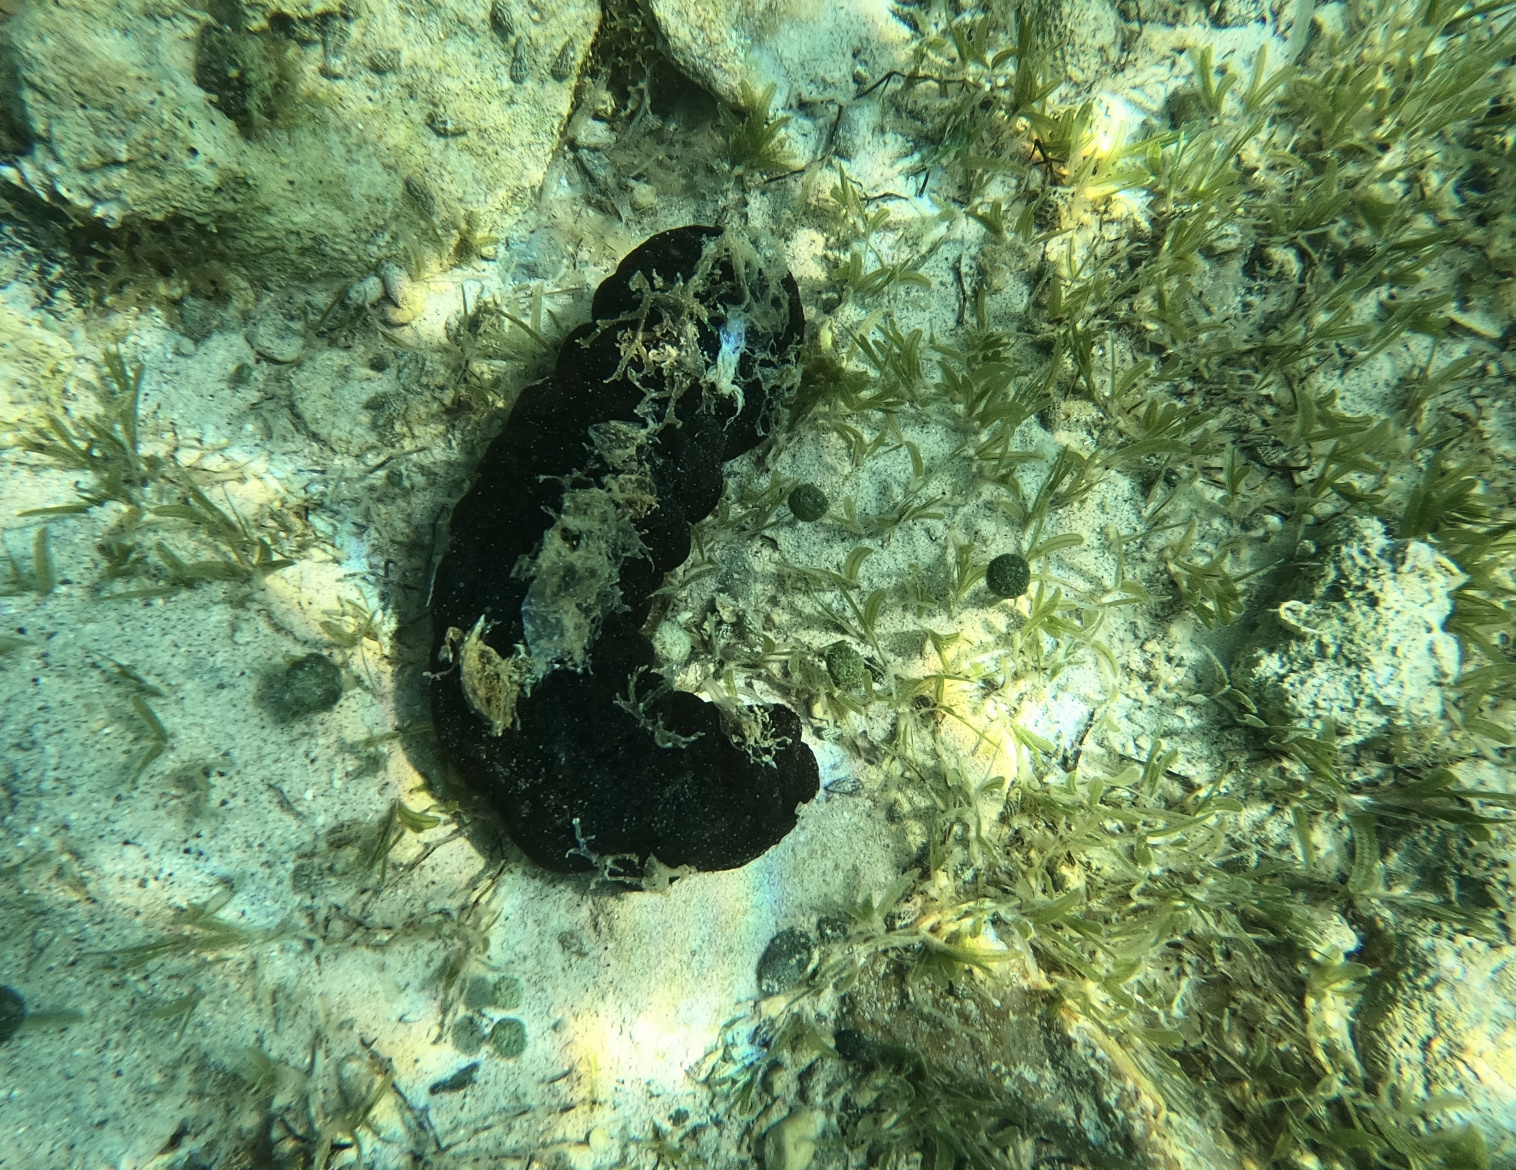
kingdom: Animalia
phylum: Echinodermata
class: Holothuroidea
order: Holothuriida
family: Holothuriidae
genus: Holothuria
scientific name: Holothuria mexicana
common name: Donkey dung sea cucumber
